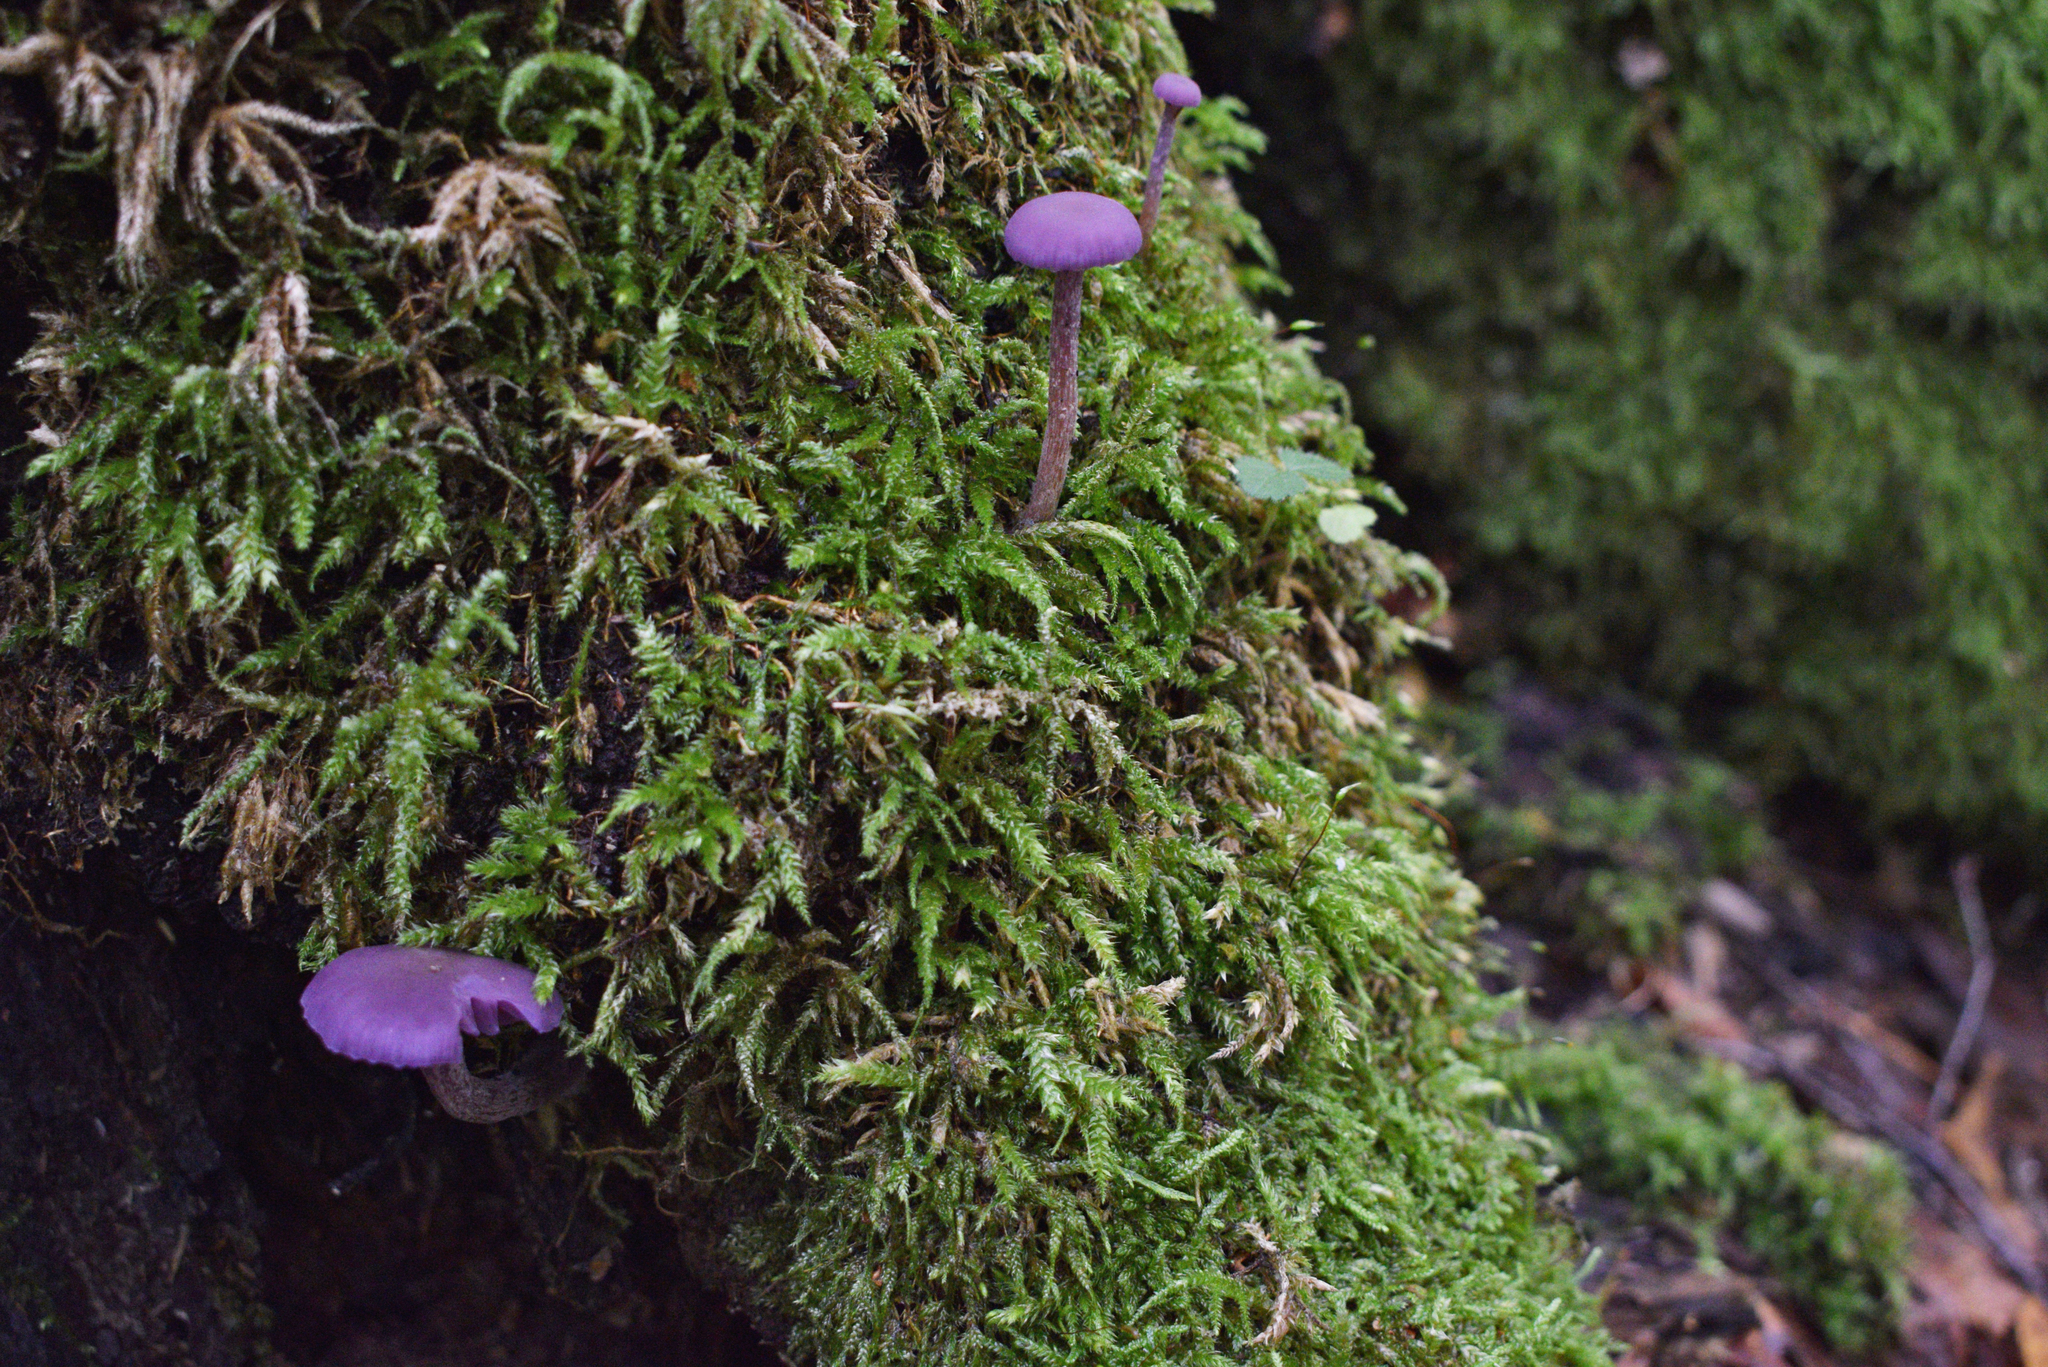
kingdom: Fungi
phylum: Basidiomycota
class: Agaricomycetes
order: Agaricales
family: Hydnangiaceae
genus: Laccaria
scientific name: Laccaria amethystina
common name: Amethyst deceiver
